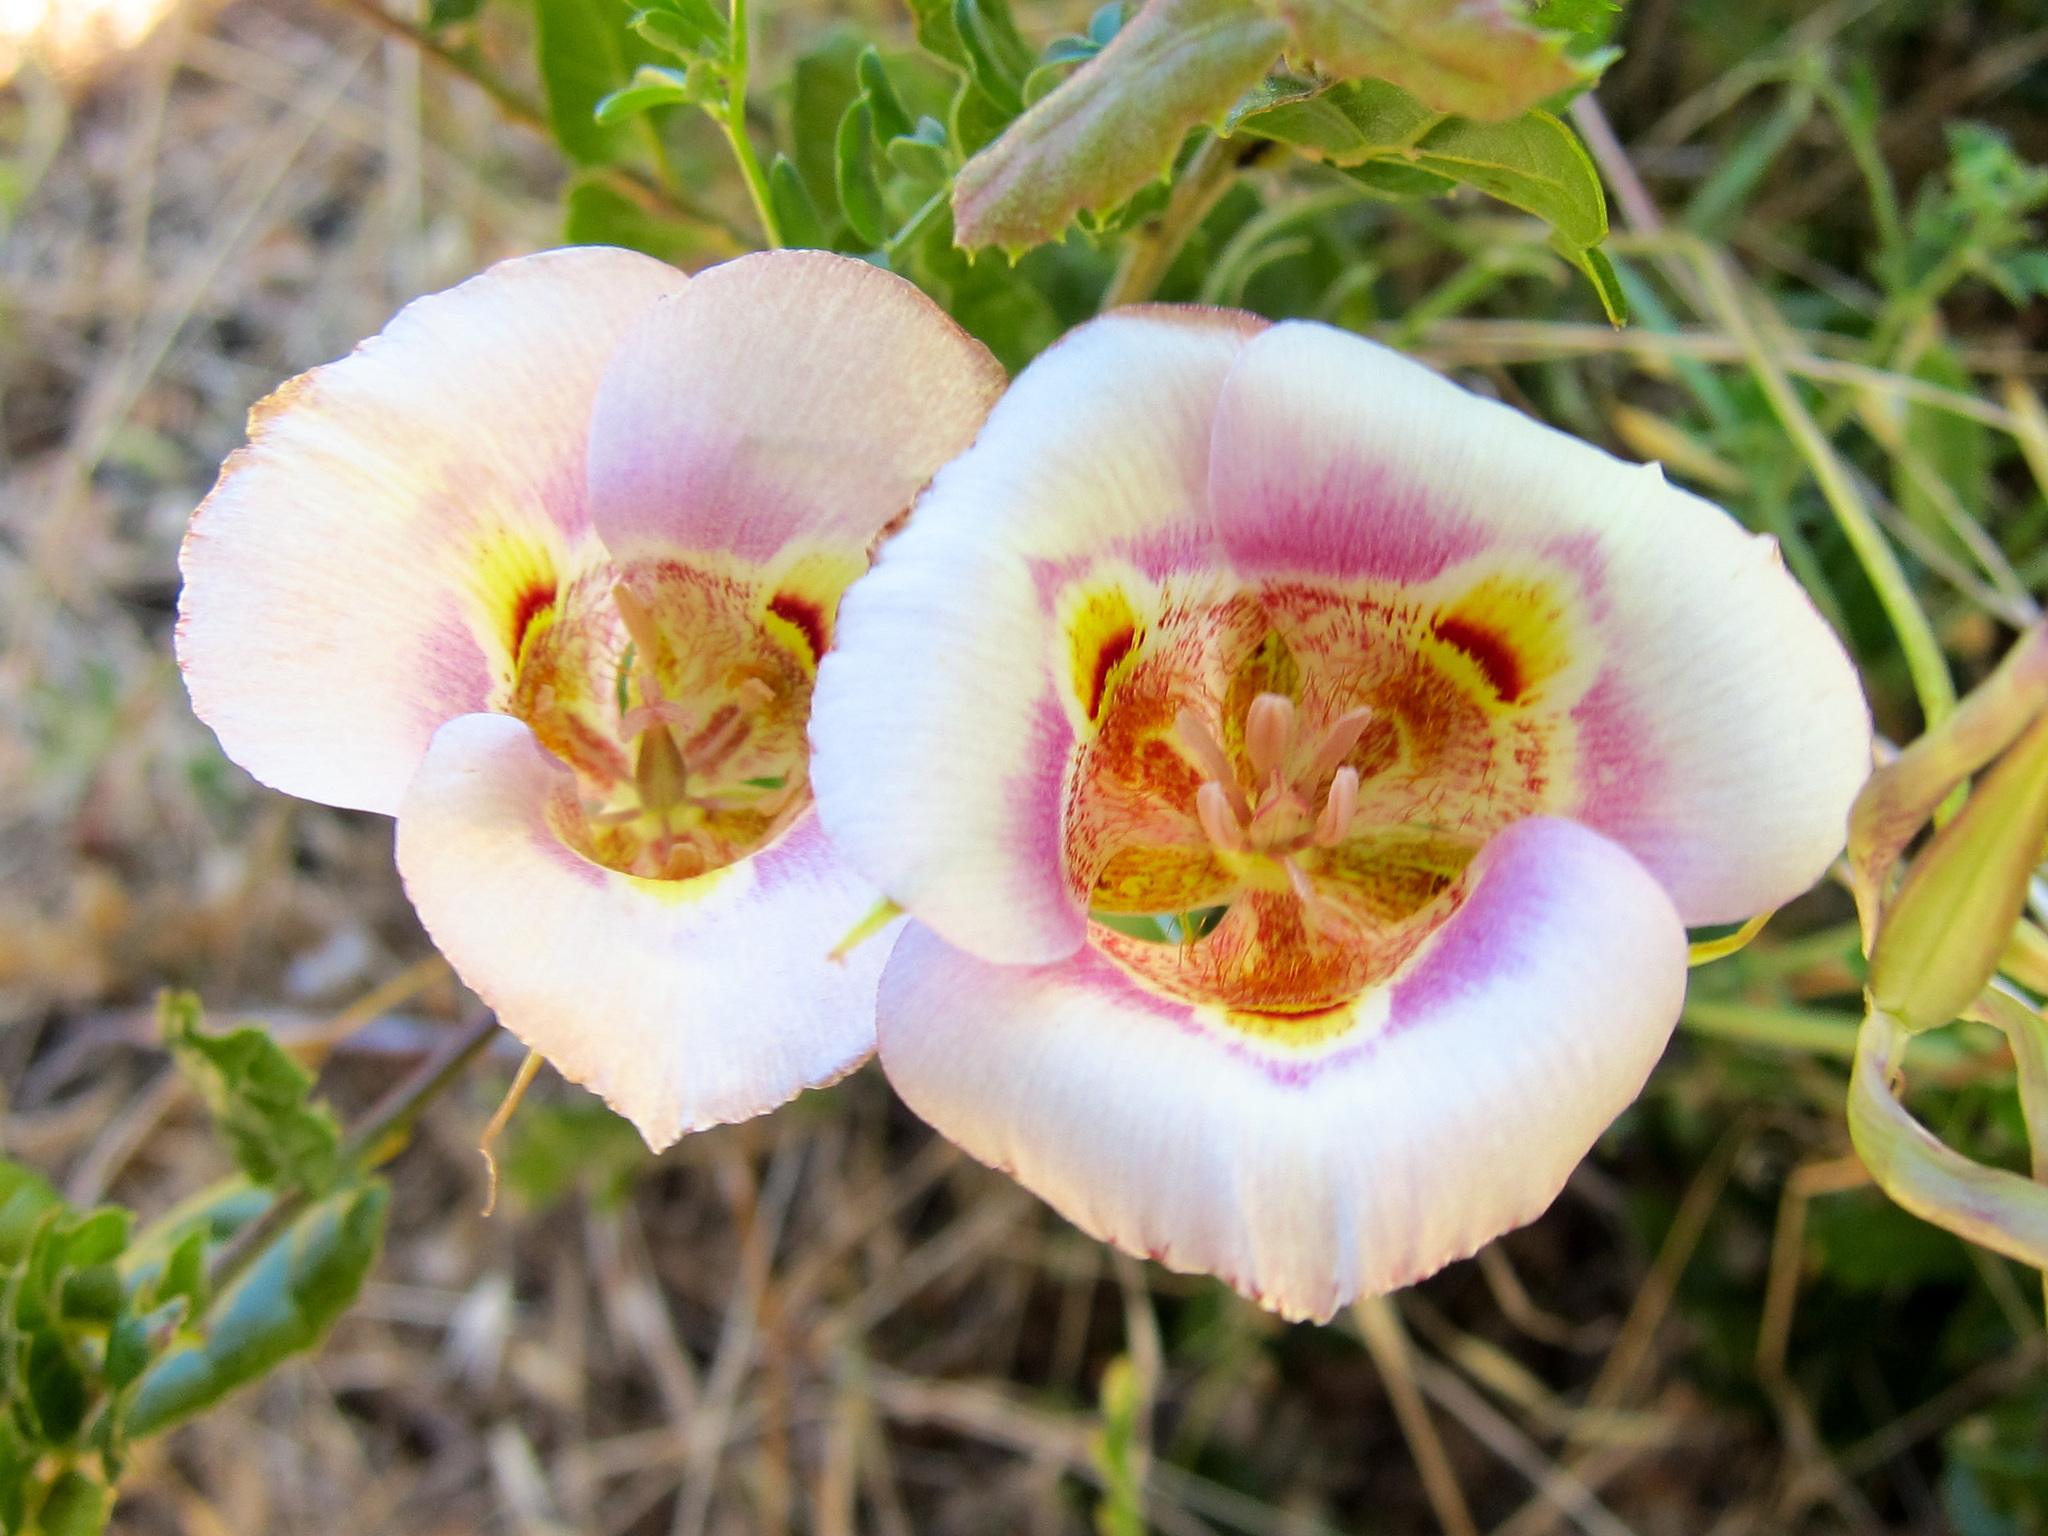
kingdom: Plantae
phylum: Tracheophyta
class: Liliopsida
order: Liliales
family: Liliaceae
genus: Calochortus
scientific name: Calochortus argillosus
